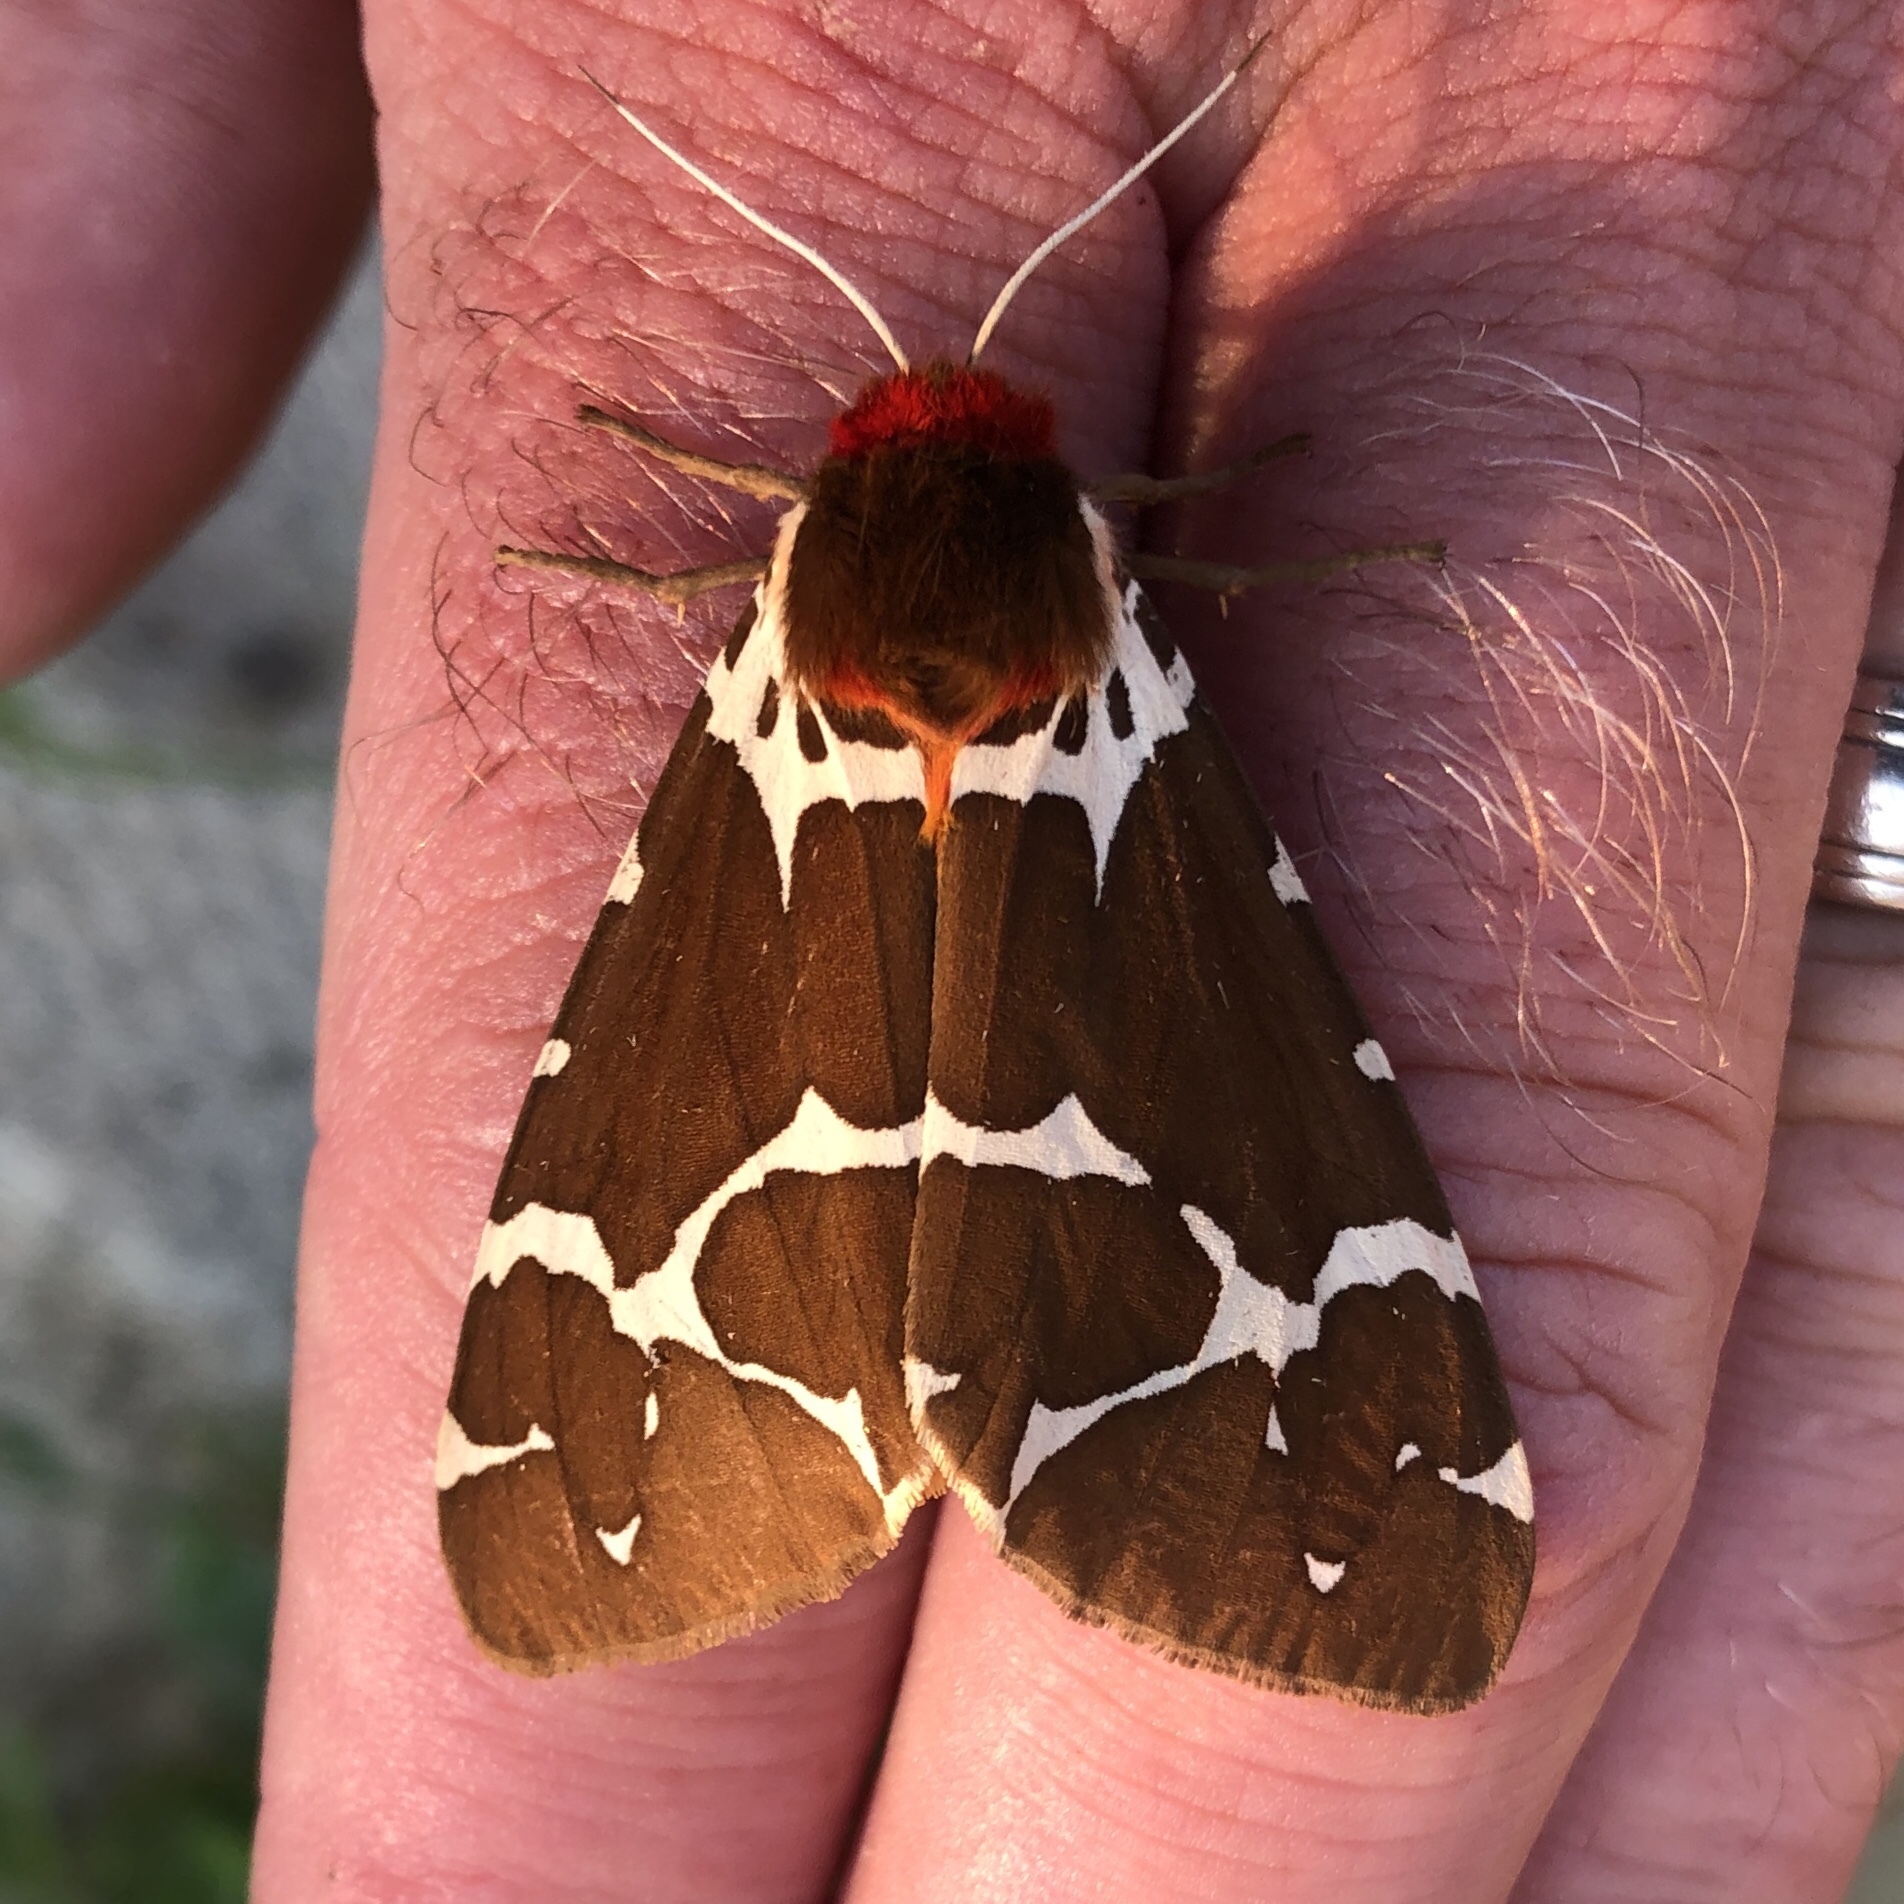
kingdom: Animalia
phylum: Arthropoda
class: Insecta
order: Lepidoptera
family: Erebidae
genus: Arctia
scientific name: Arctia caja
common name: Garden tiger
